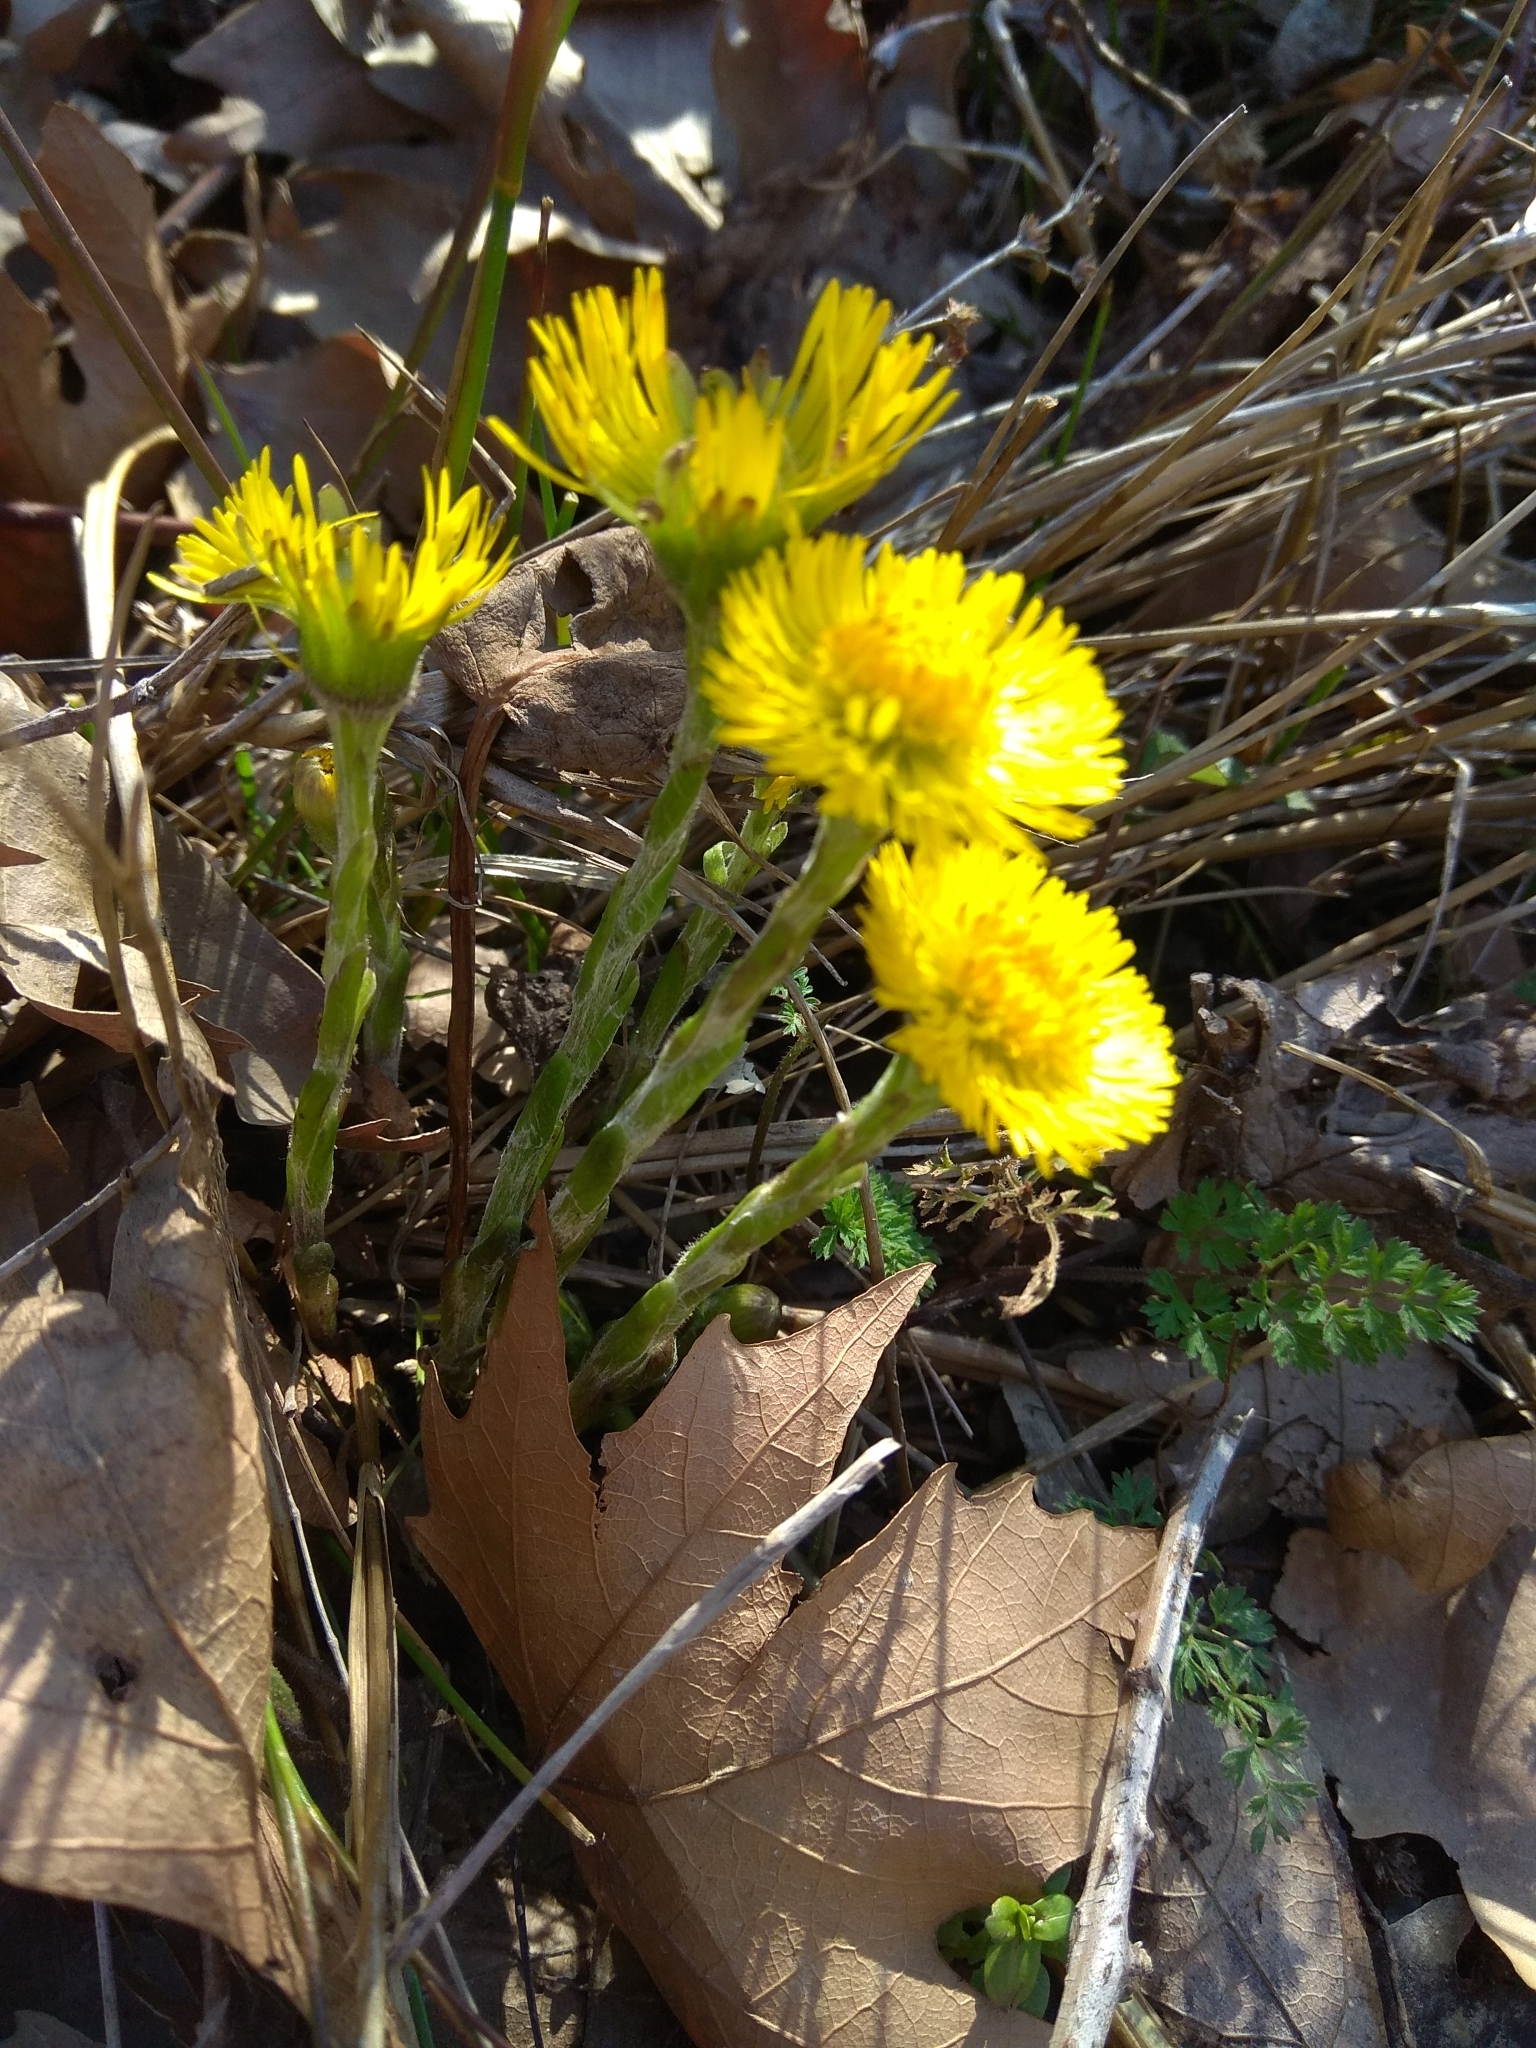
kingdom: Plantae
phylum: Tracheophyta
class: Magnoliopsida
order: Asterales
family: Asteraceae
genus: Tussilago
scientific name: Tussilago farfara
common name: Coltsfoot
